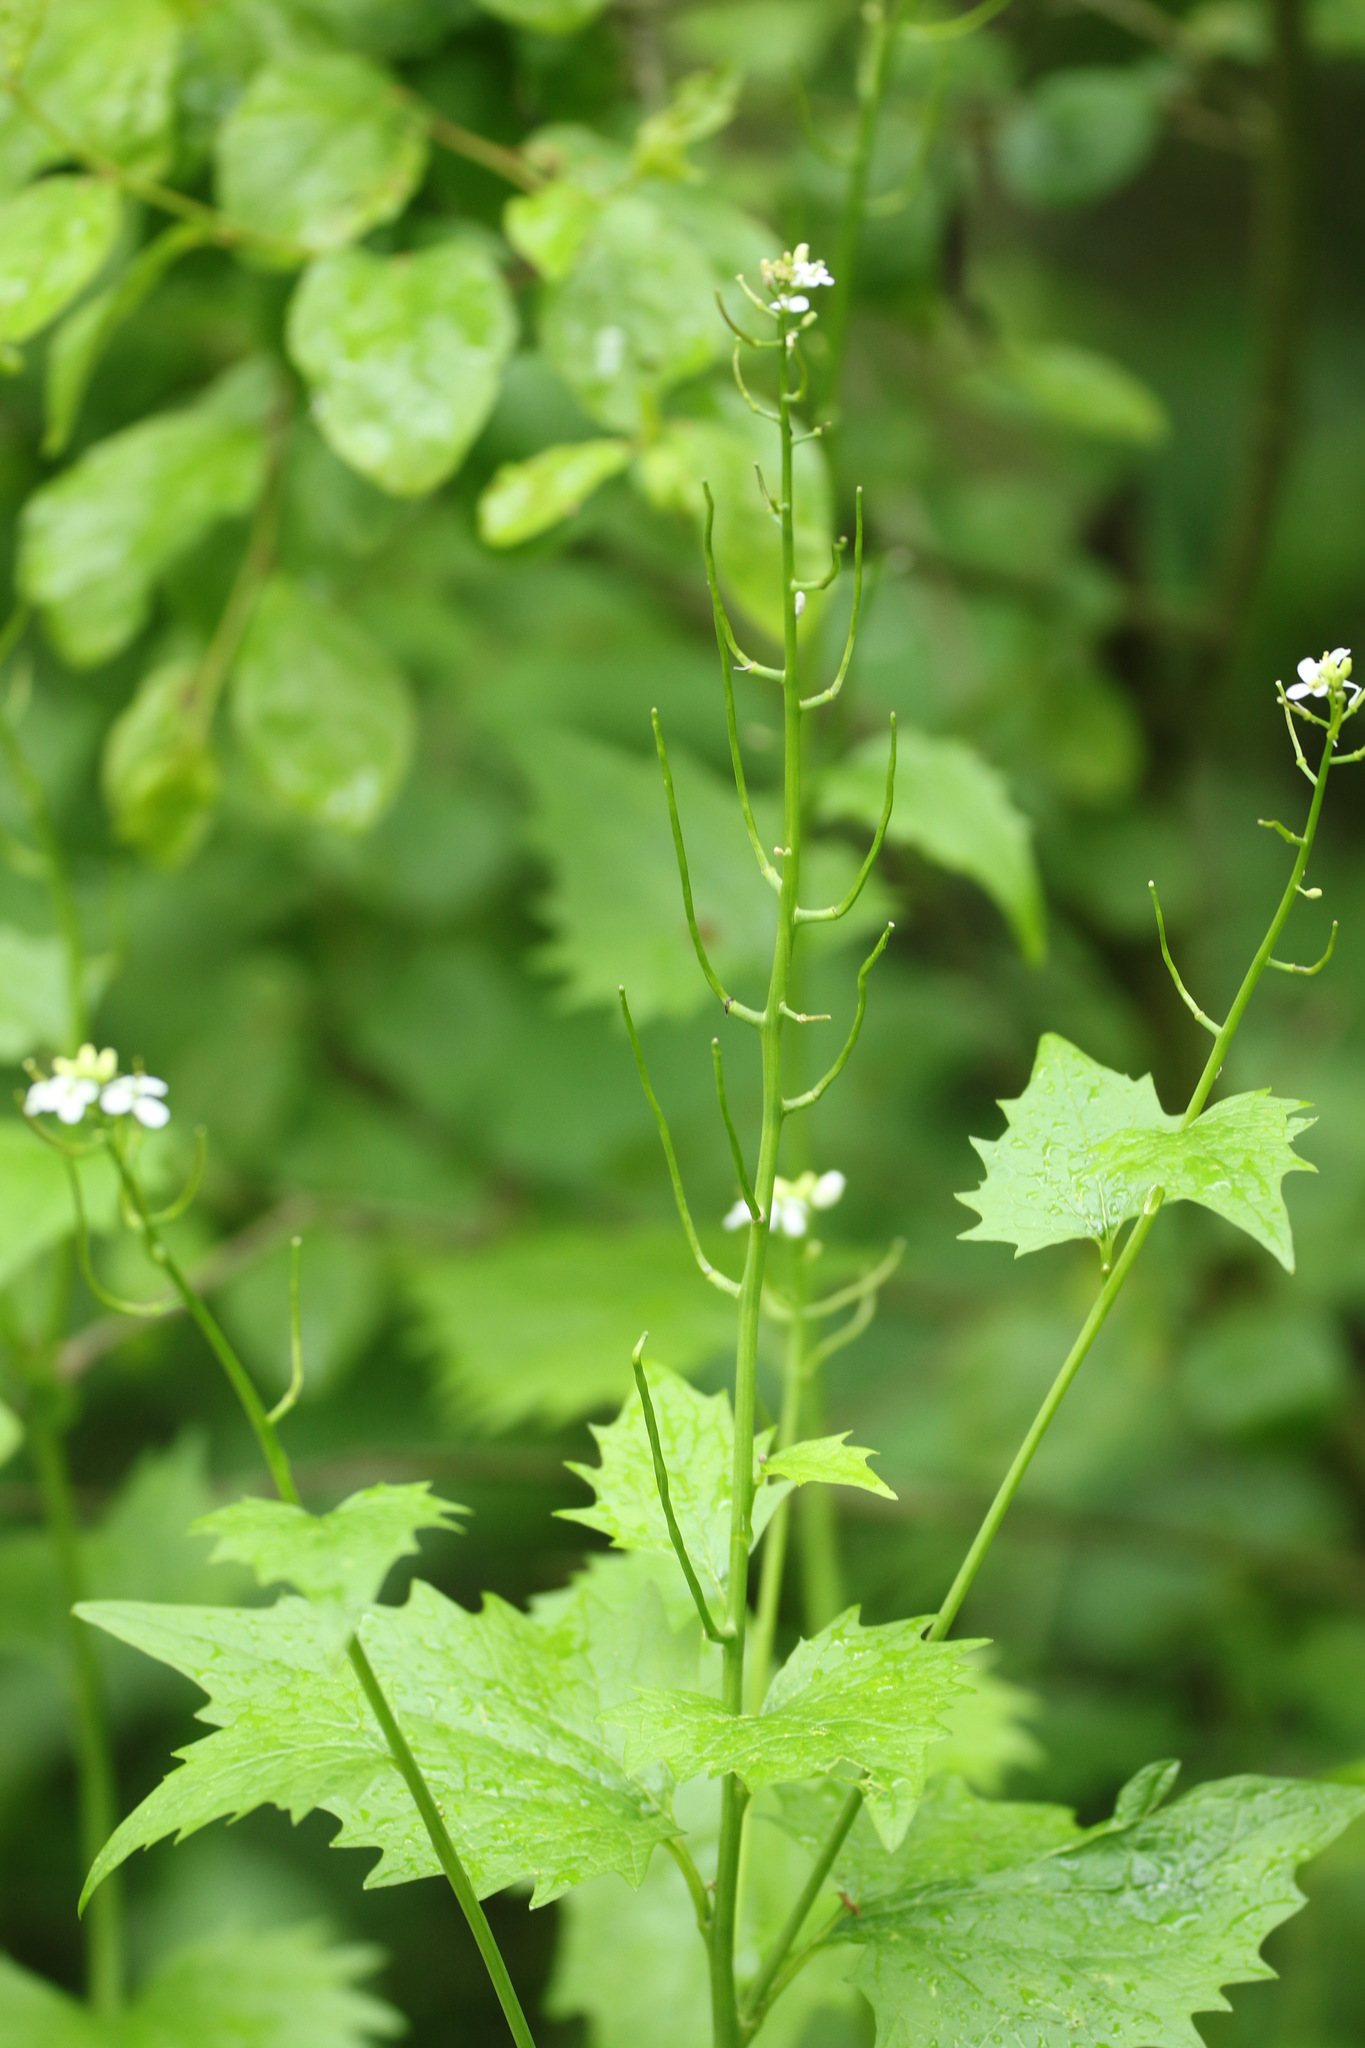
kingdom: Plantae
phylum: Tracheophyta
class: Magnoliopsida
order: Brassicales
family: Brassicaceae
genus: Alliaria
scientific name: Alliaria petiolata
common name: Garlic mustard
